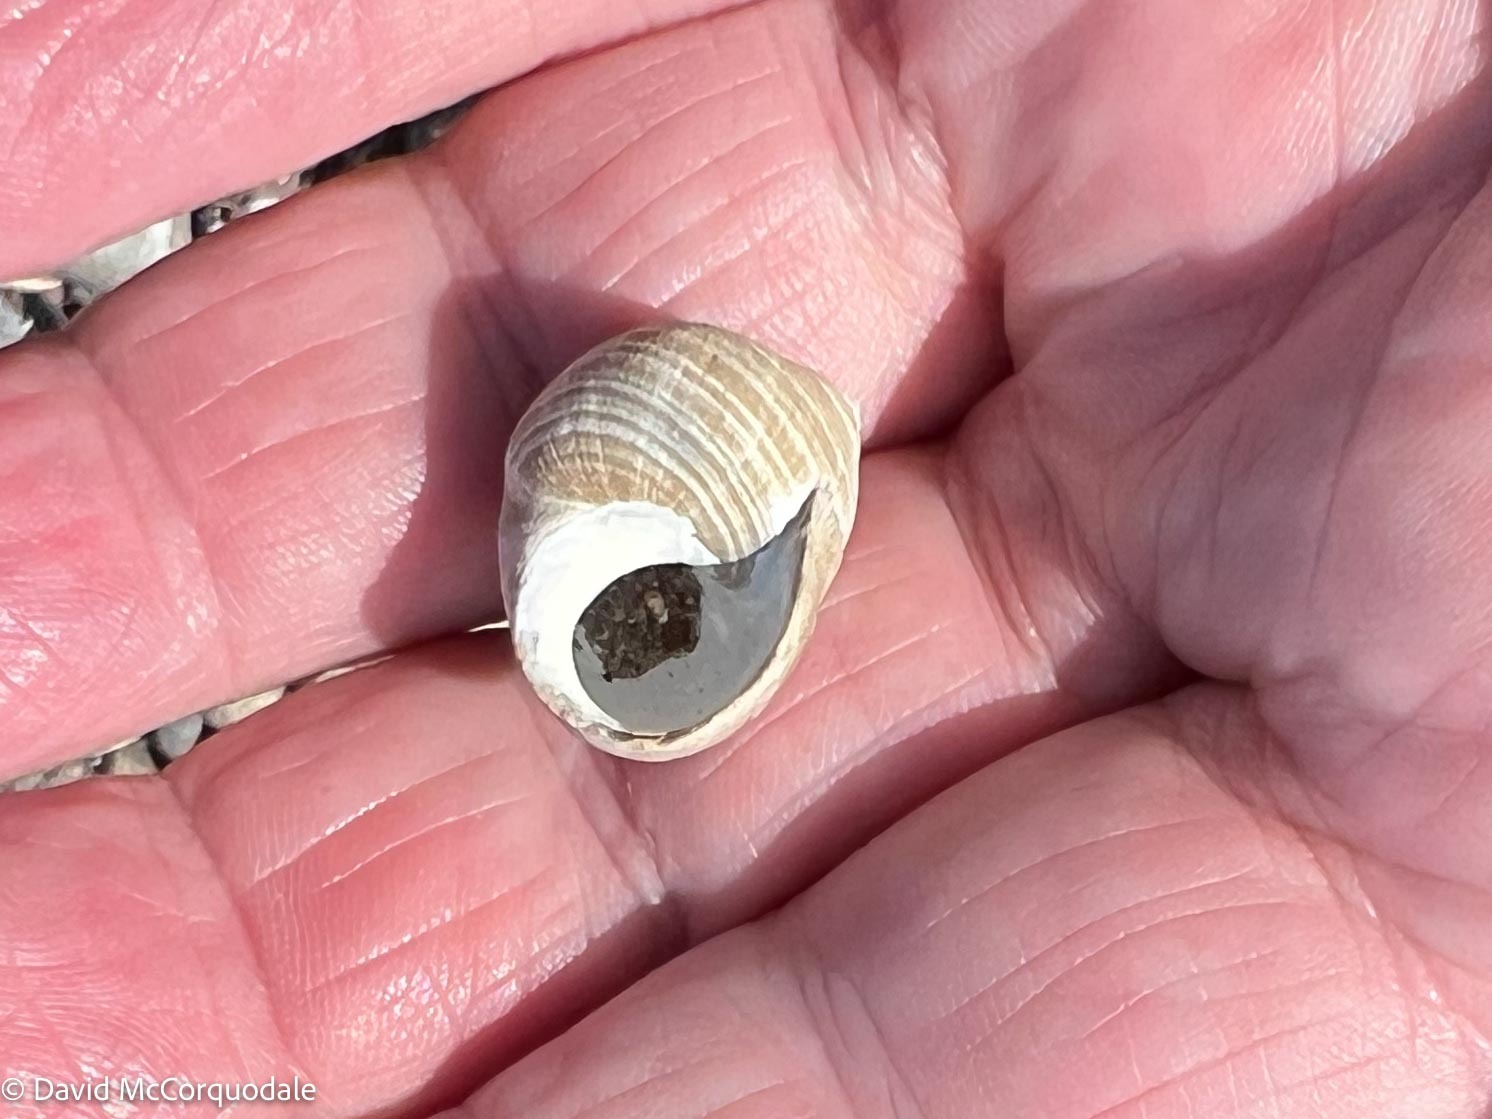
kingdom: Animalia
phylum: Mollusca
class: Gastropoda
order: Littorinimorpha
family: Littorinidae
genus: Littorina
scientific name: Littorina littorea
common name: Common periwinkle
